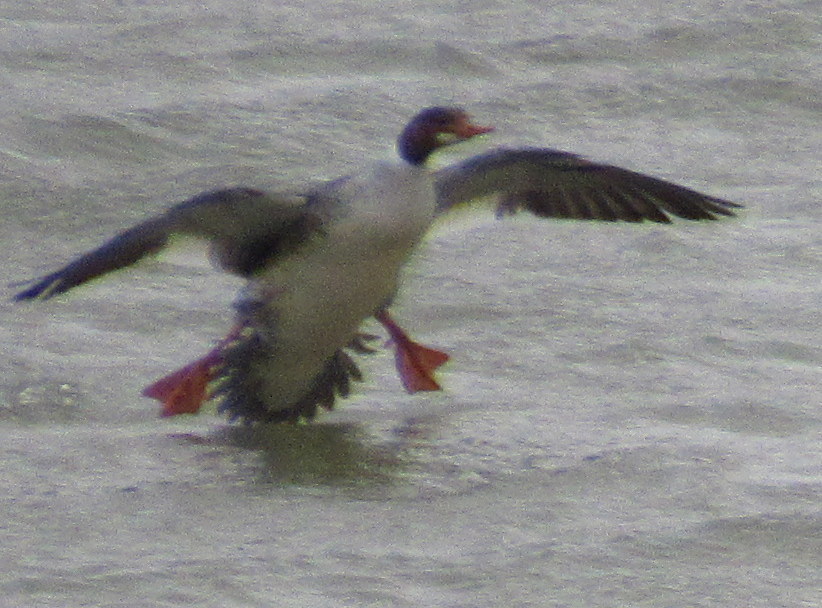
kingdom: Animalia
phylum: Chordata
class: Aves
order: Anseriformes
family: Anatidae
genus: Mergus
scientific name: Mergus merganser
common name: Common merganser
